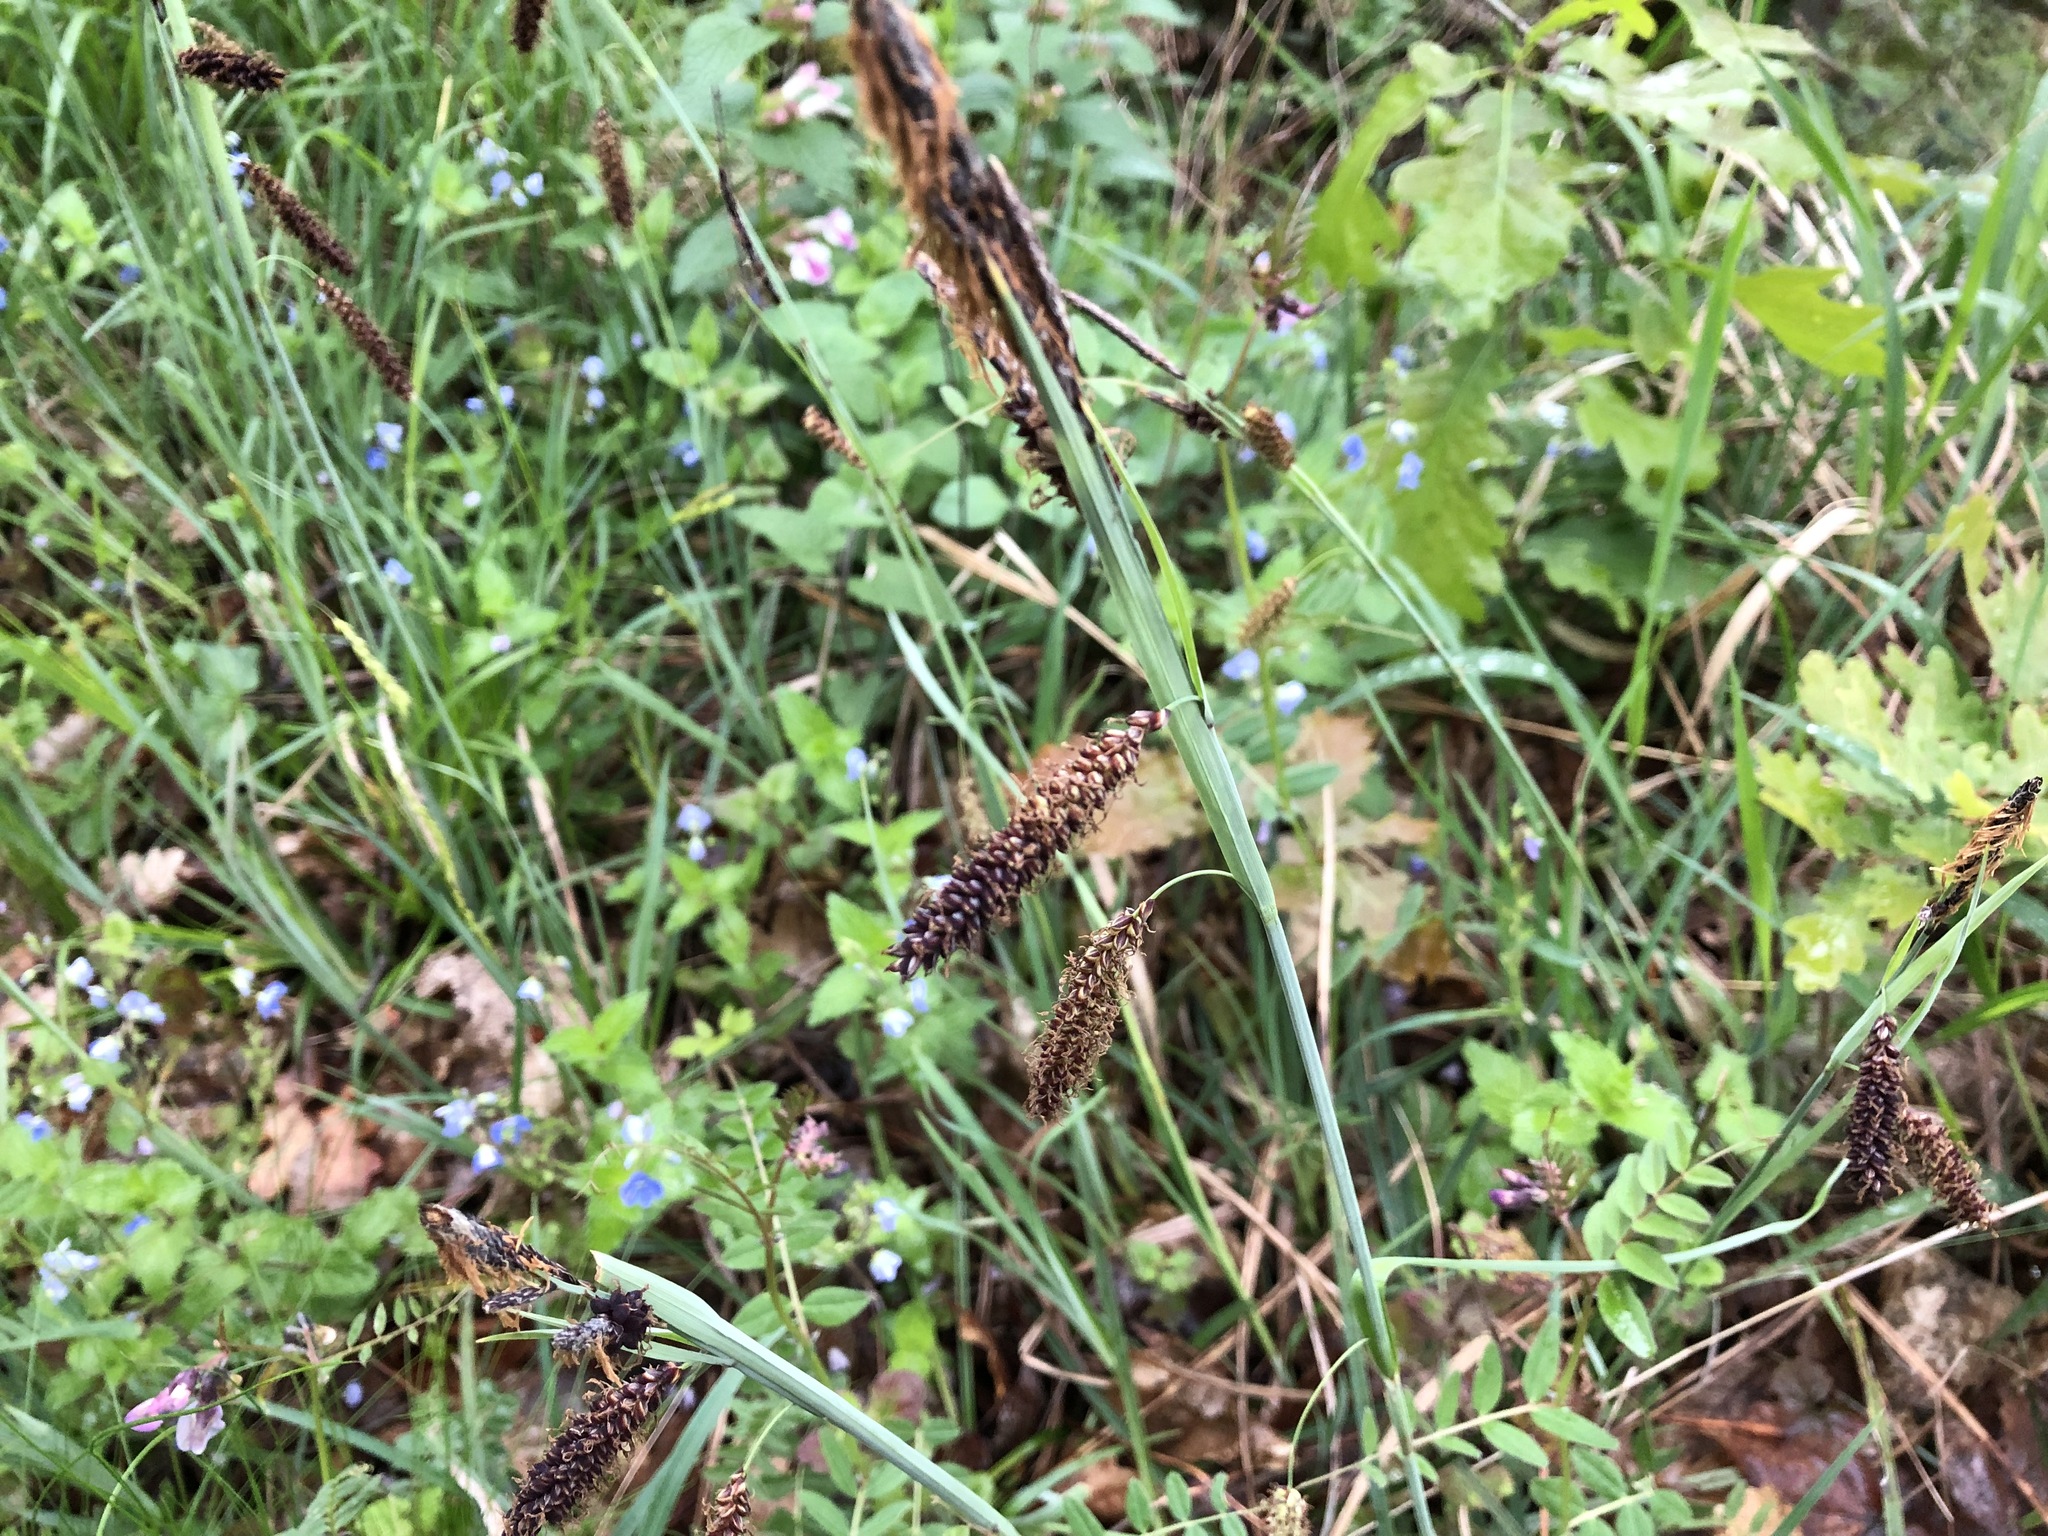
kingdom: Plantae
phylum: Tracheophyta
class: Liliopsida
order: Poales
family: Cyperaceae
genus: Carex
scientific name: Carex flacca
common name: Glaucous sedge
